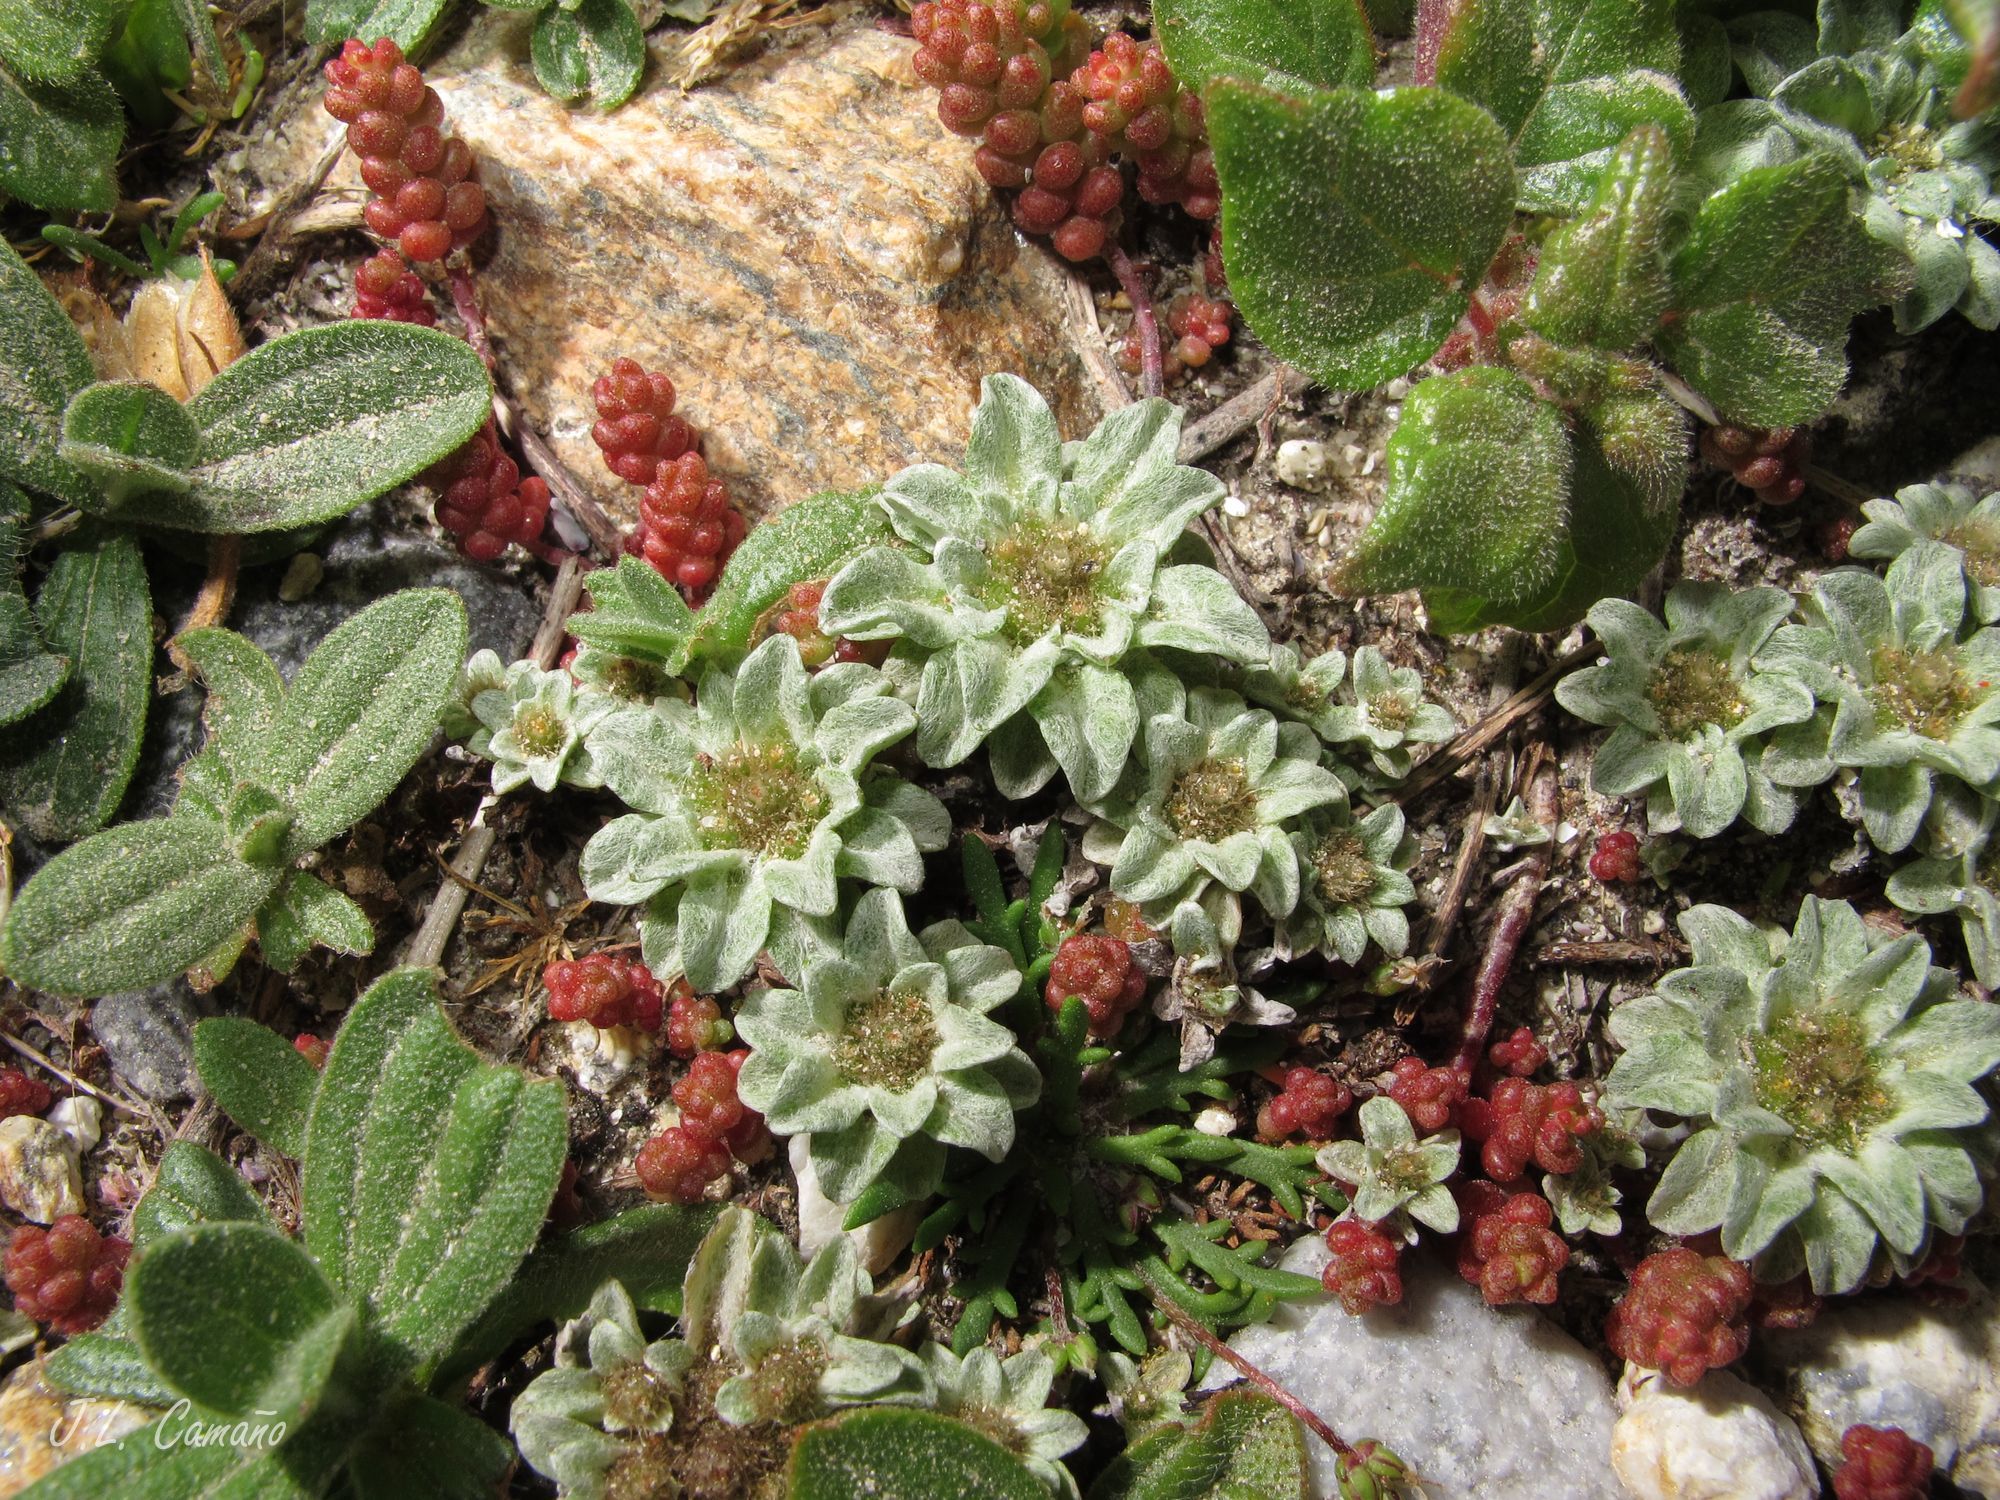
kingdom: Plantae
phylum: Tracheophyta
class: Magnoliopsida
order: Asterales
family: Asteraceae
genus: Filago
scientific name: Filago pygmaea
